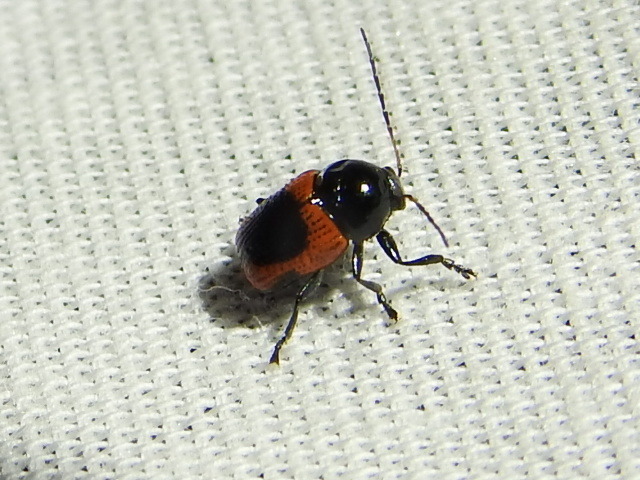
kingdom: Animalia
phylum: Arthropoda
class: Insecta
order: Coleoptera
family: Chrysomelidae
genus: Cryptocephalus
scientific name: Cryptocephalus notatus
